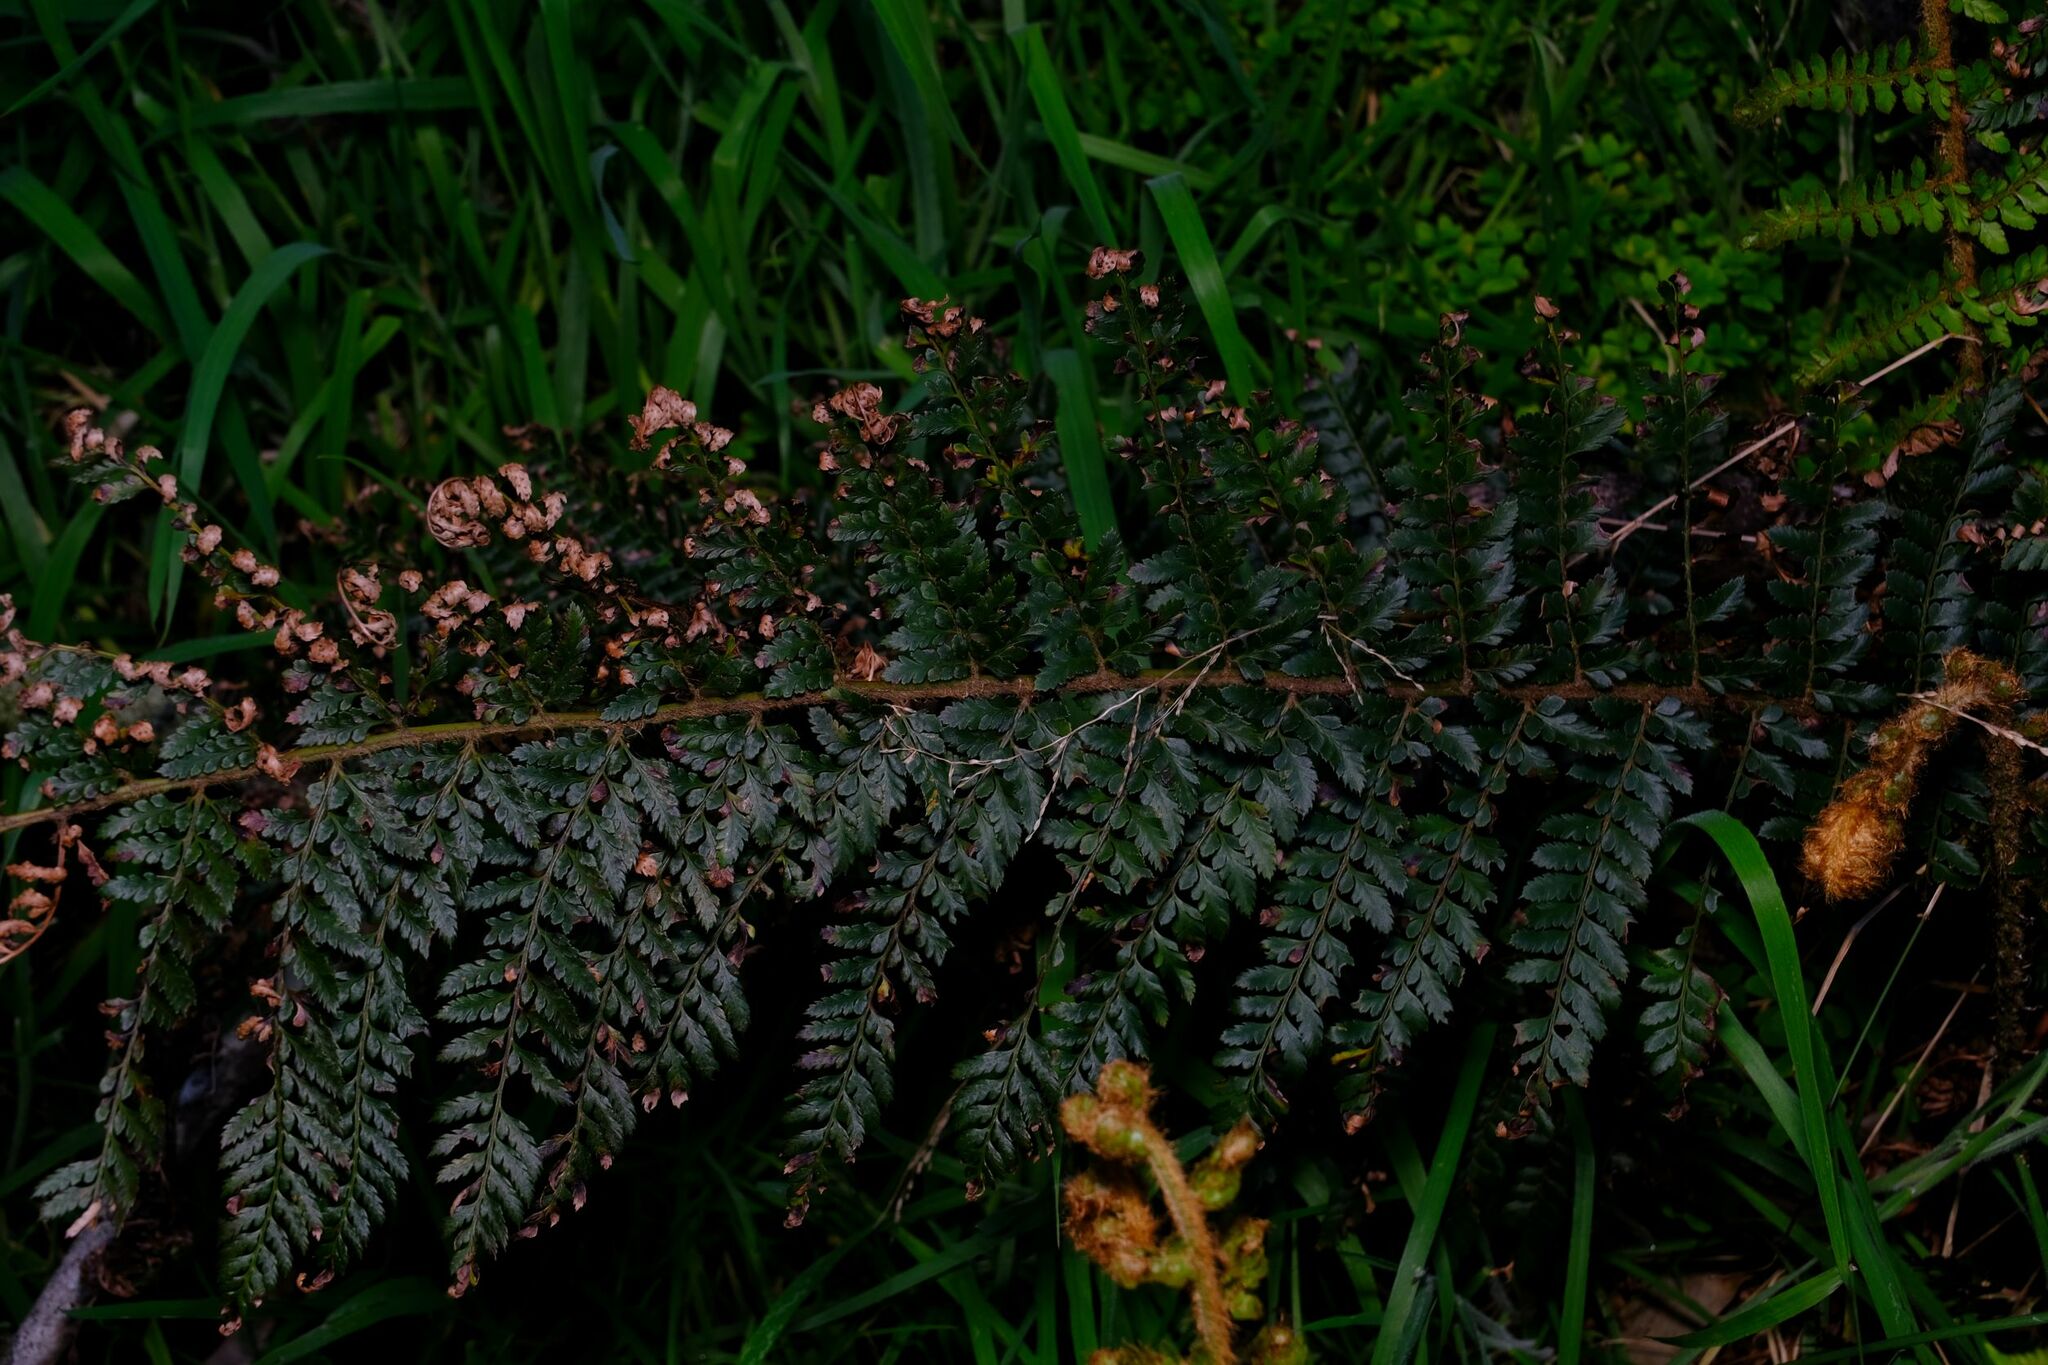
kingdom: Plantae
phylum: Tracheophyta
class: Polypodiopsida
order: Polypodiales
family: Dryopteridaceae
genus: Polystichum
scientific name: Polystichum proliferum
